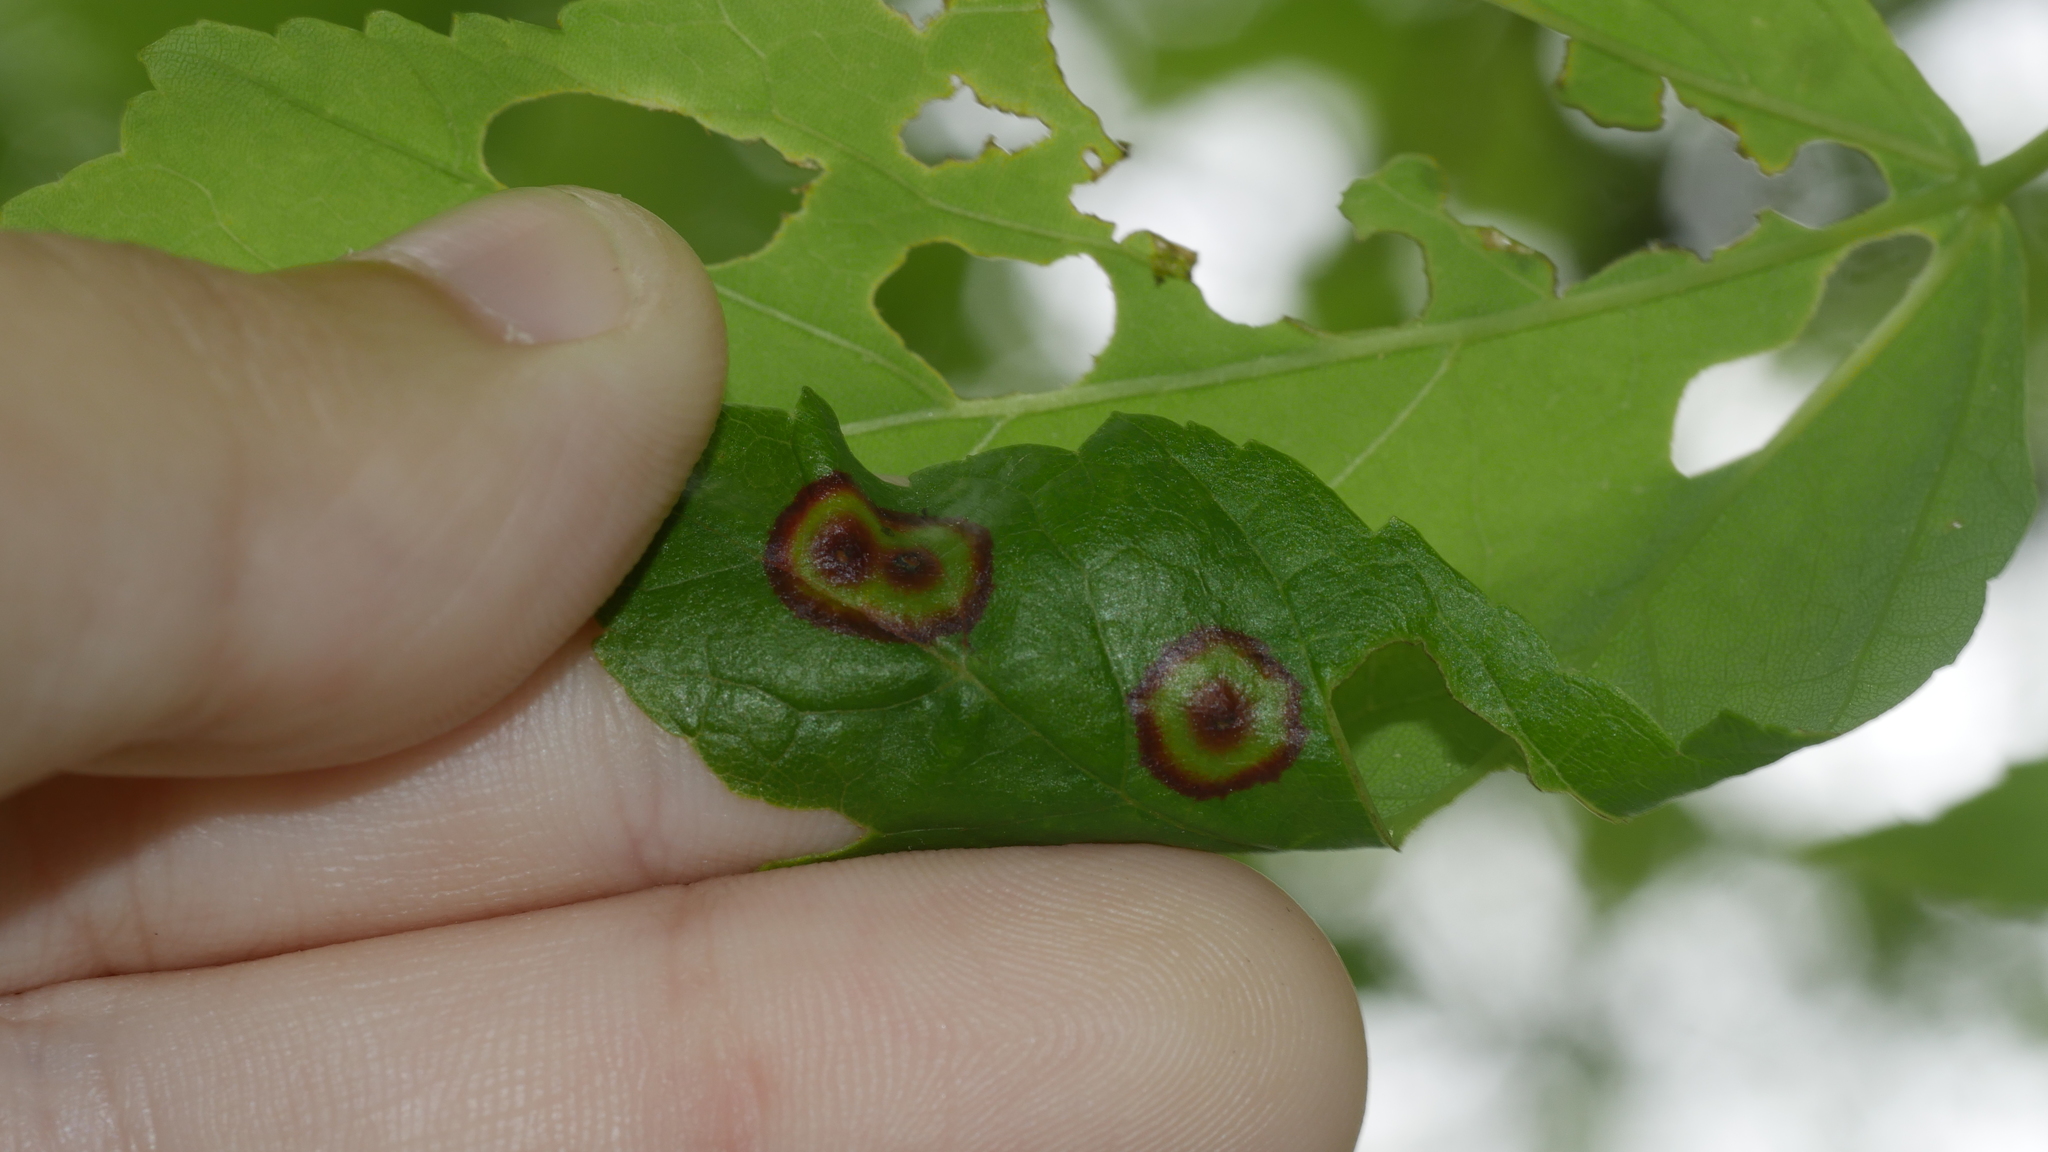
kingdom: Animalia
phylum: Arthropoda
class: Insecta
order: Diptera
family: Cecidomyiidae
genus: Acericecis
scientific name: Acericecis ocellaris
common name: Ocellate gall midge
